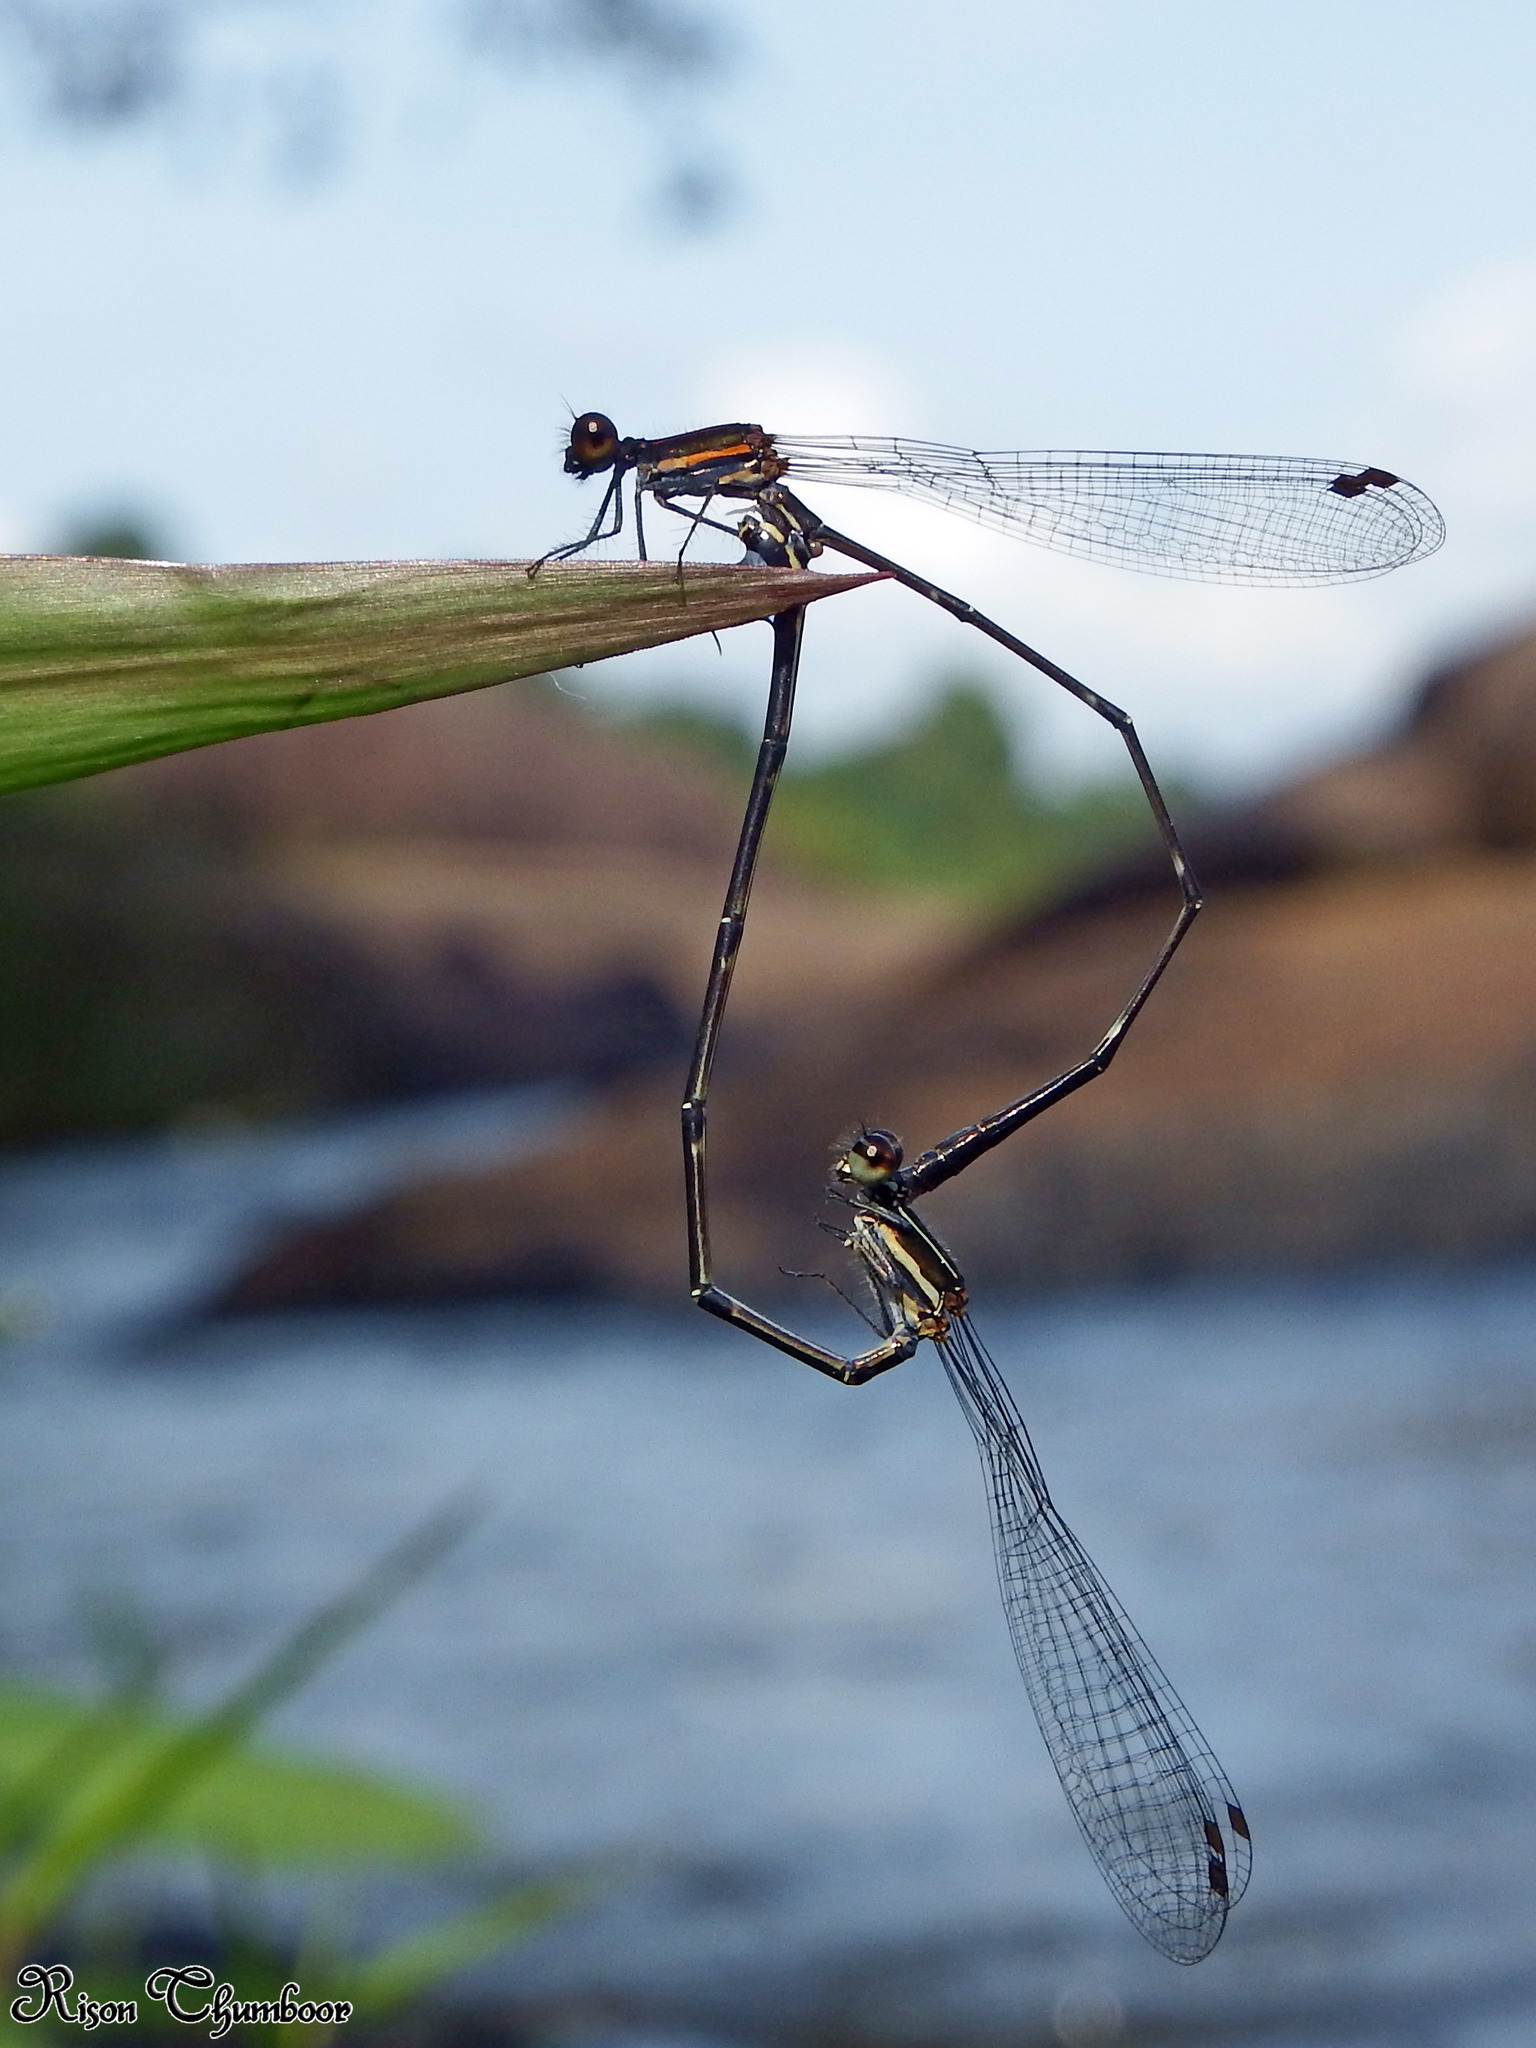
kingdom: Animalia
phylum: Arthropoda
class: Insecta
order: Odonata
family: Platycnemididae
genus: Prodasineura
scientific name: Prodasineura verticalis
